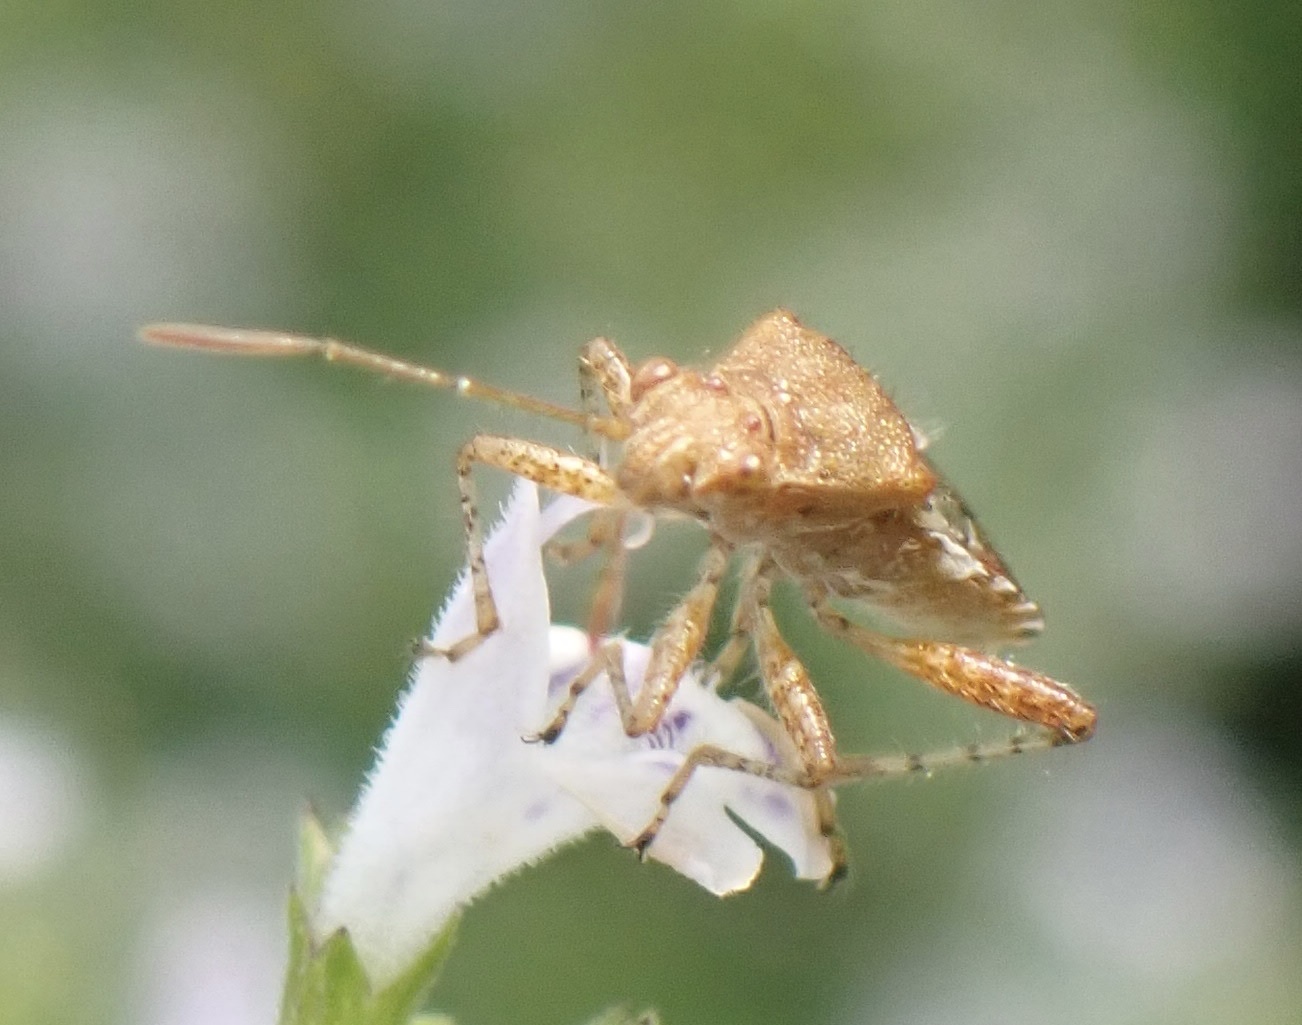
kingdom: Animalia
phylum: Arthropoda
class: Insecta
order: Hemiptera
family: Rhopalidae
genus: Rhopalus
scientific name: Rhopalus subrufus
